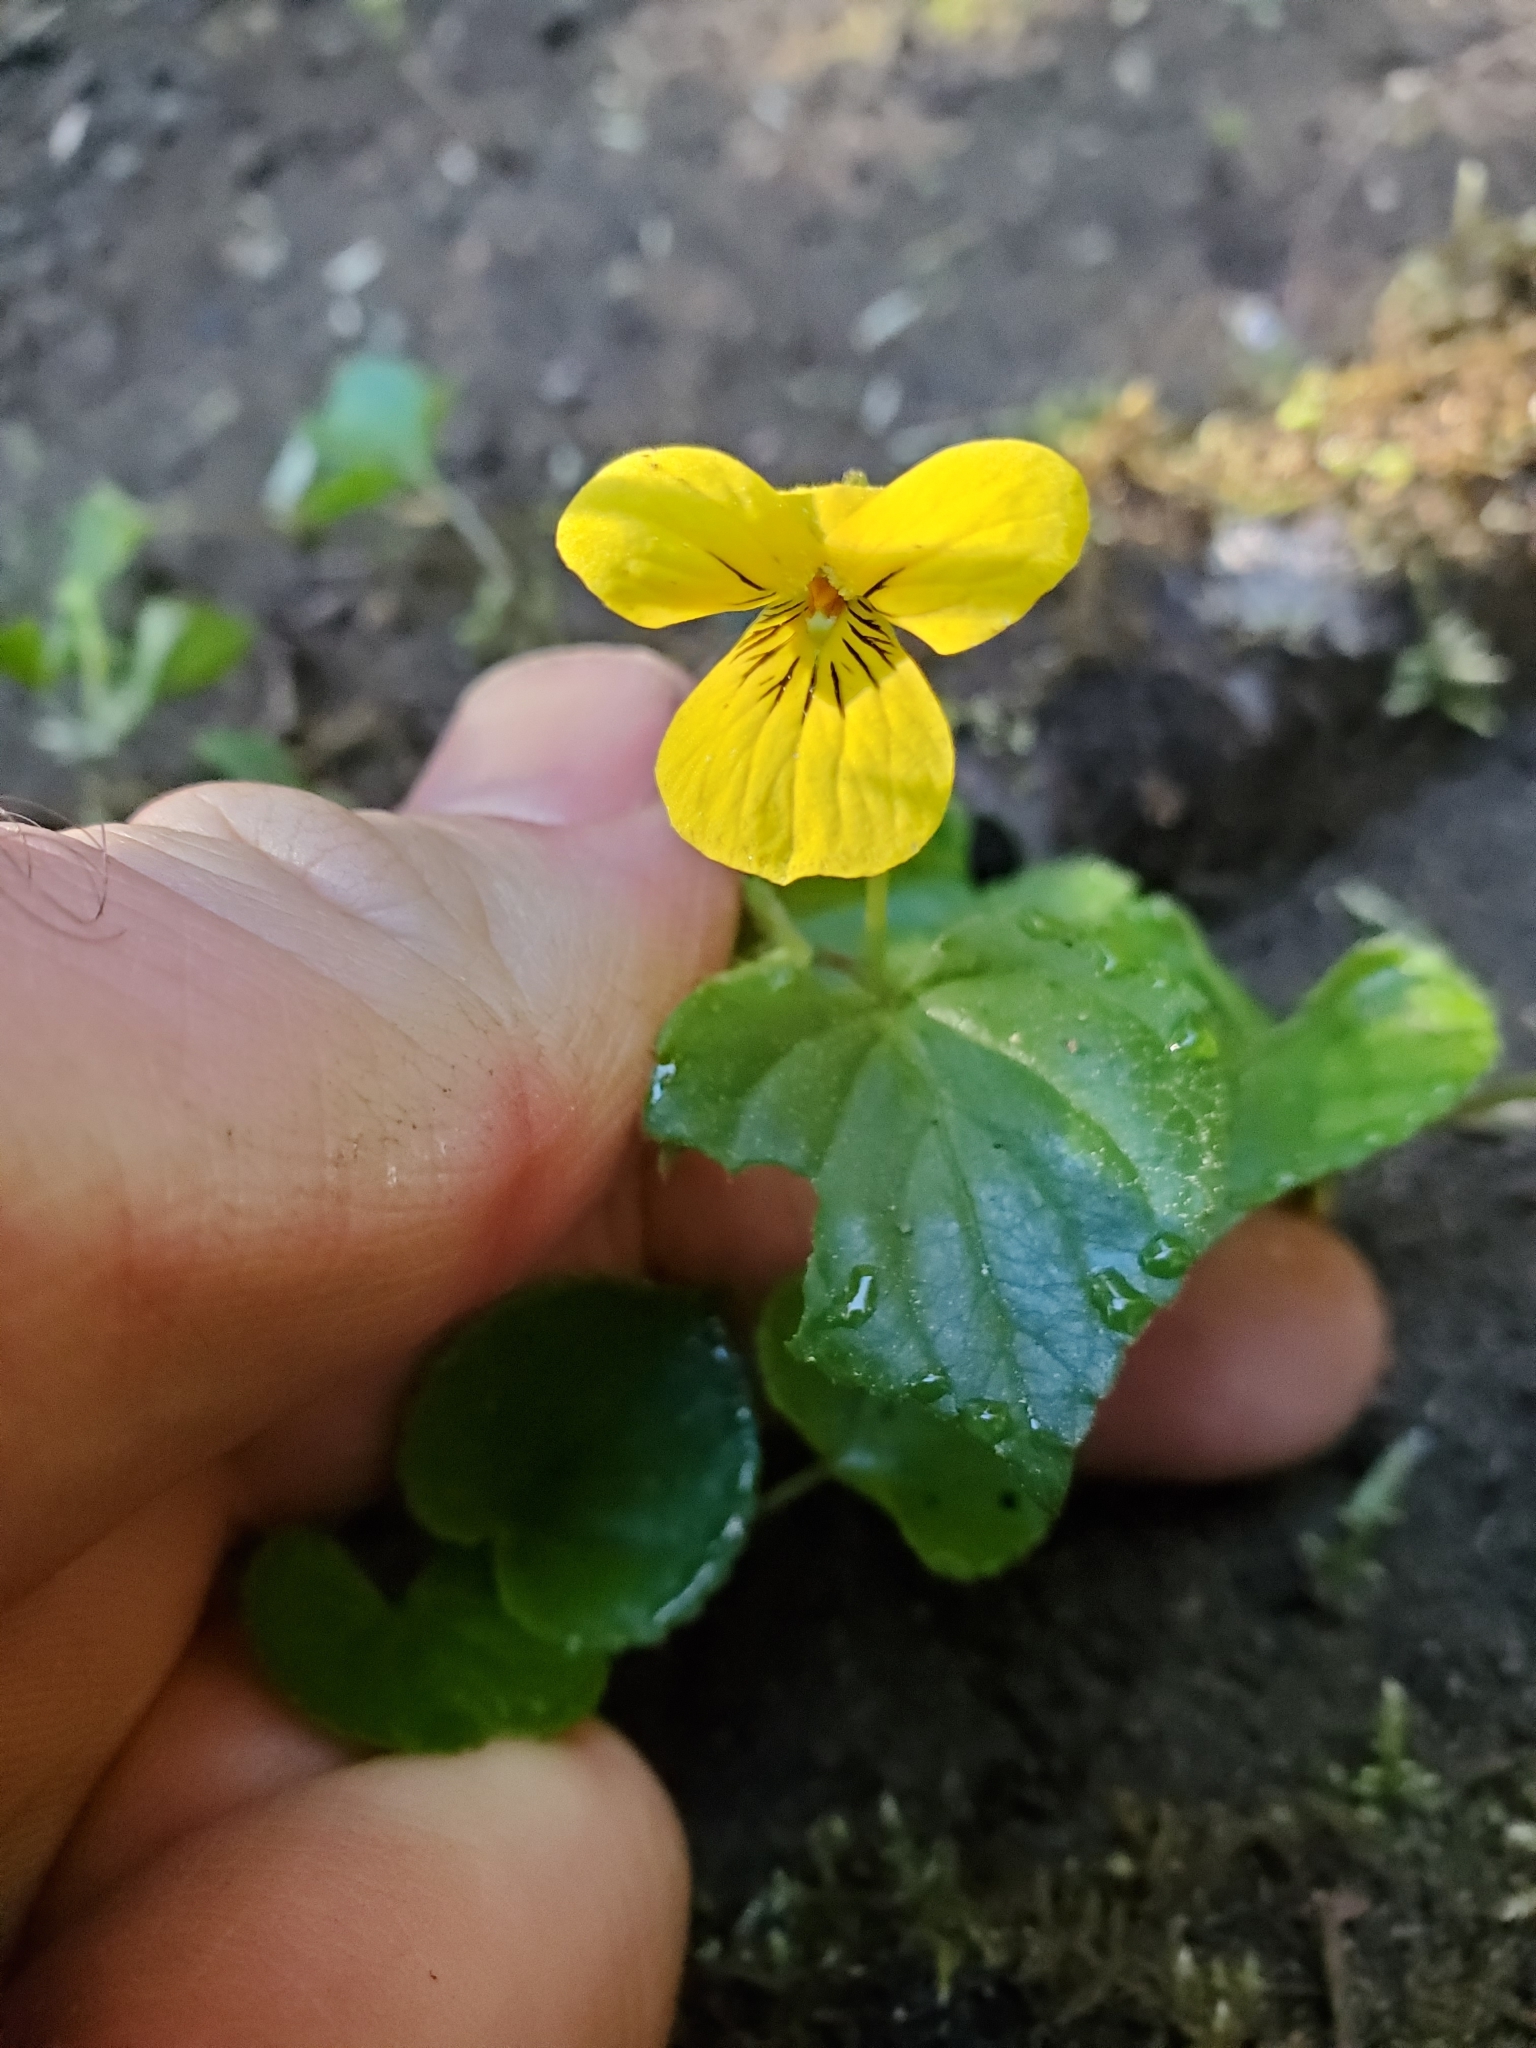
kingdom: Plantae
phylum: Tracheophyta
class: Magnoliopsida
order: Malpighiales
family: Violaceae
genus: Viola
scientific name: Viola glabella
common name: Stream violet
